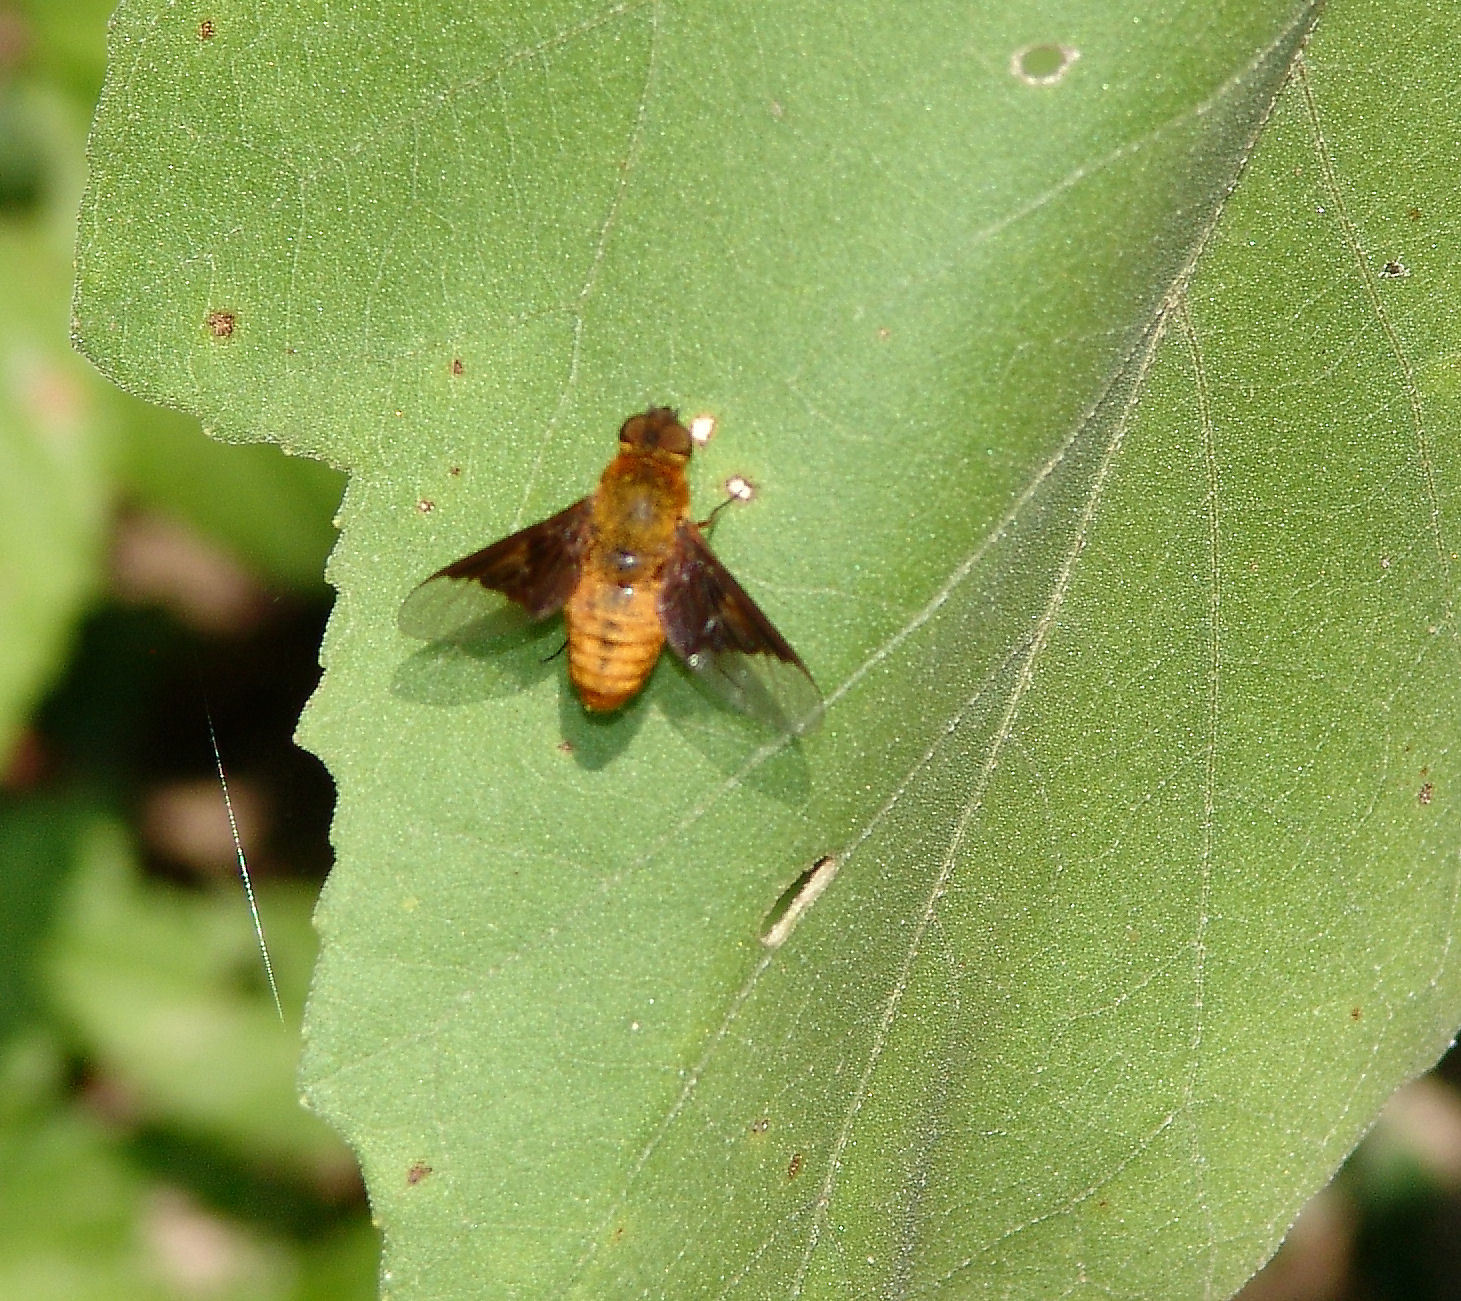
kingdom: Animalia
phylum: Arthropoda
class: Insecta
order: Diptera
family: Bombyliidae
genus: Chrysanthrax
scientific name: Chrysanthrax cypris
